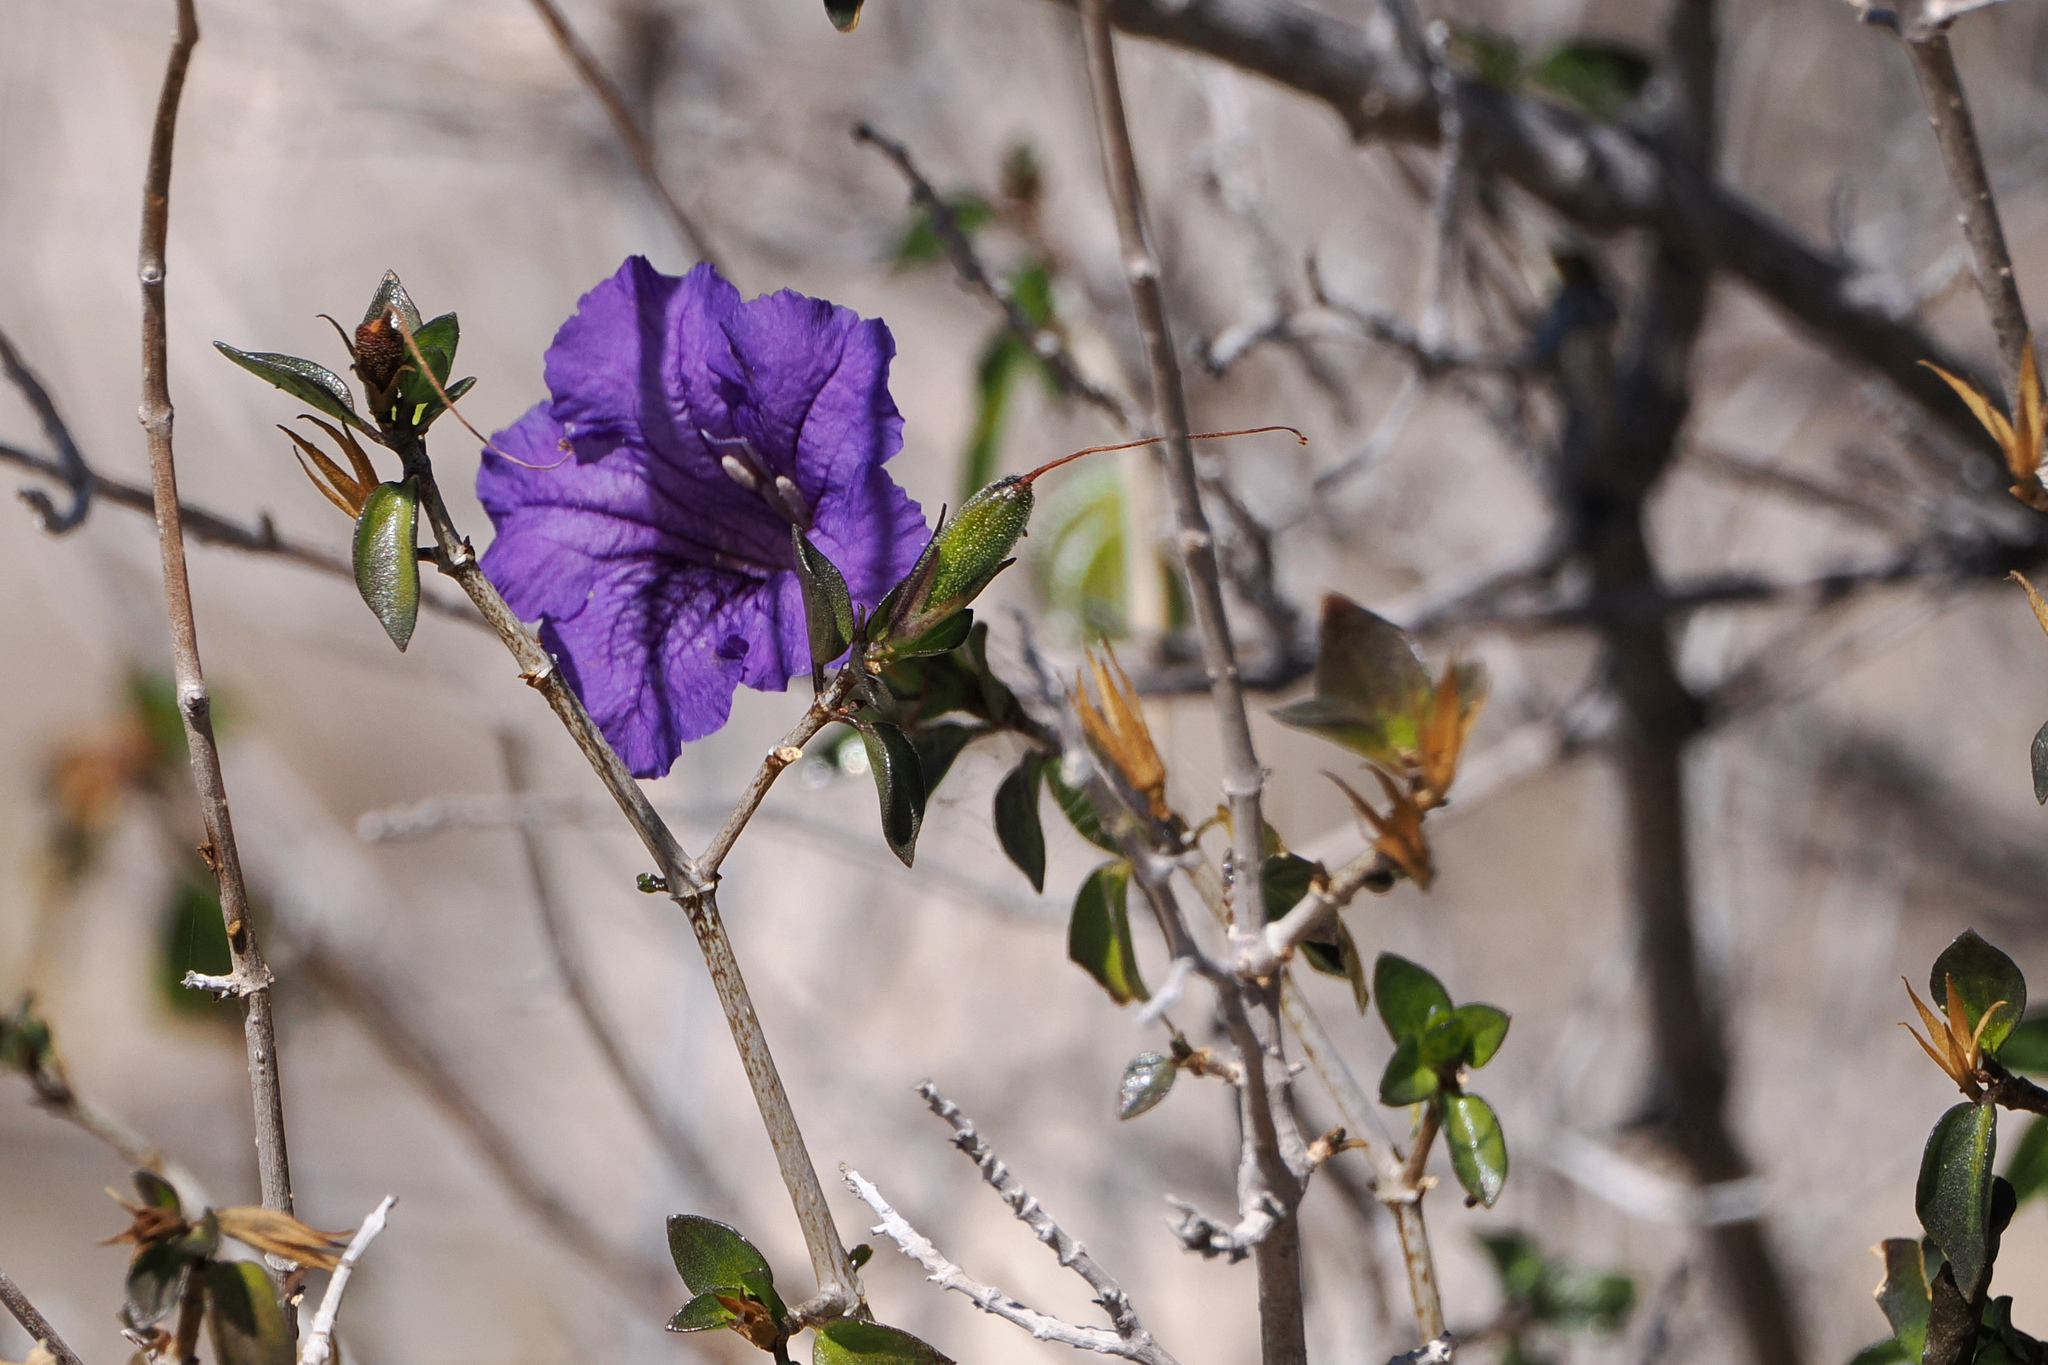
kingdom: Plantae
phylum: Tracheophyta
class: Magnoliopsida
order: Lamiales
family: Acanthaceae
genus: Ruellia
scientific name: Ruellia californica
